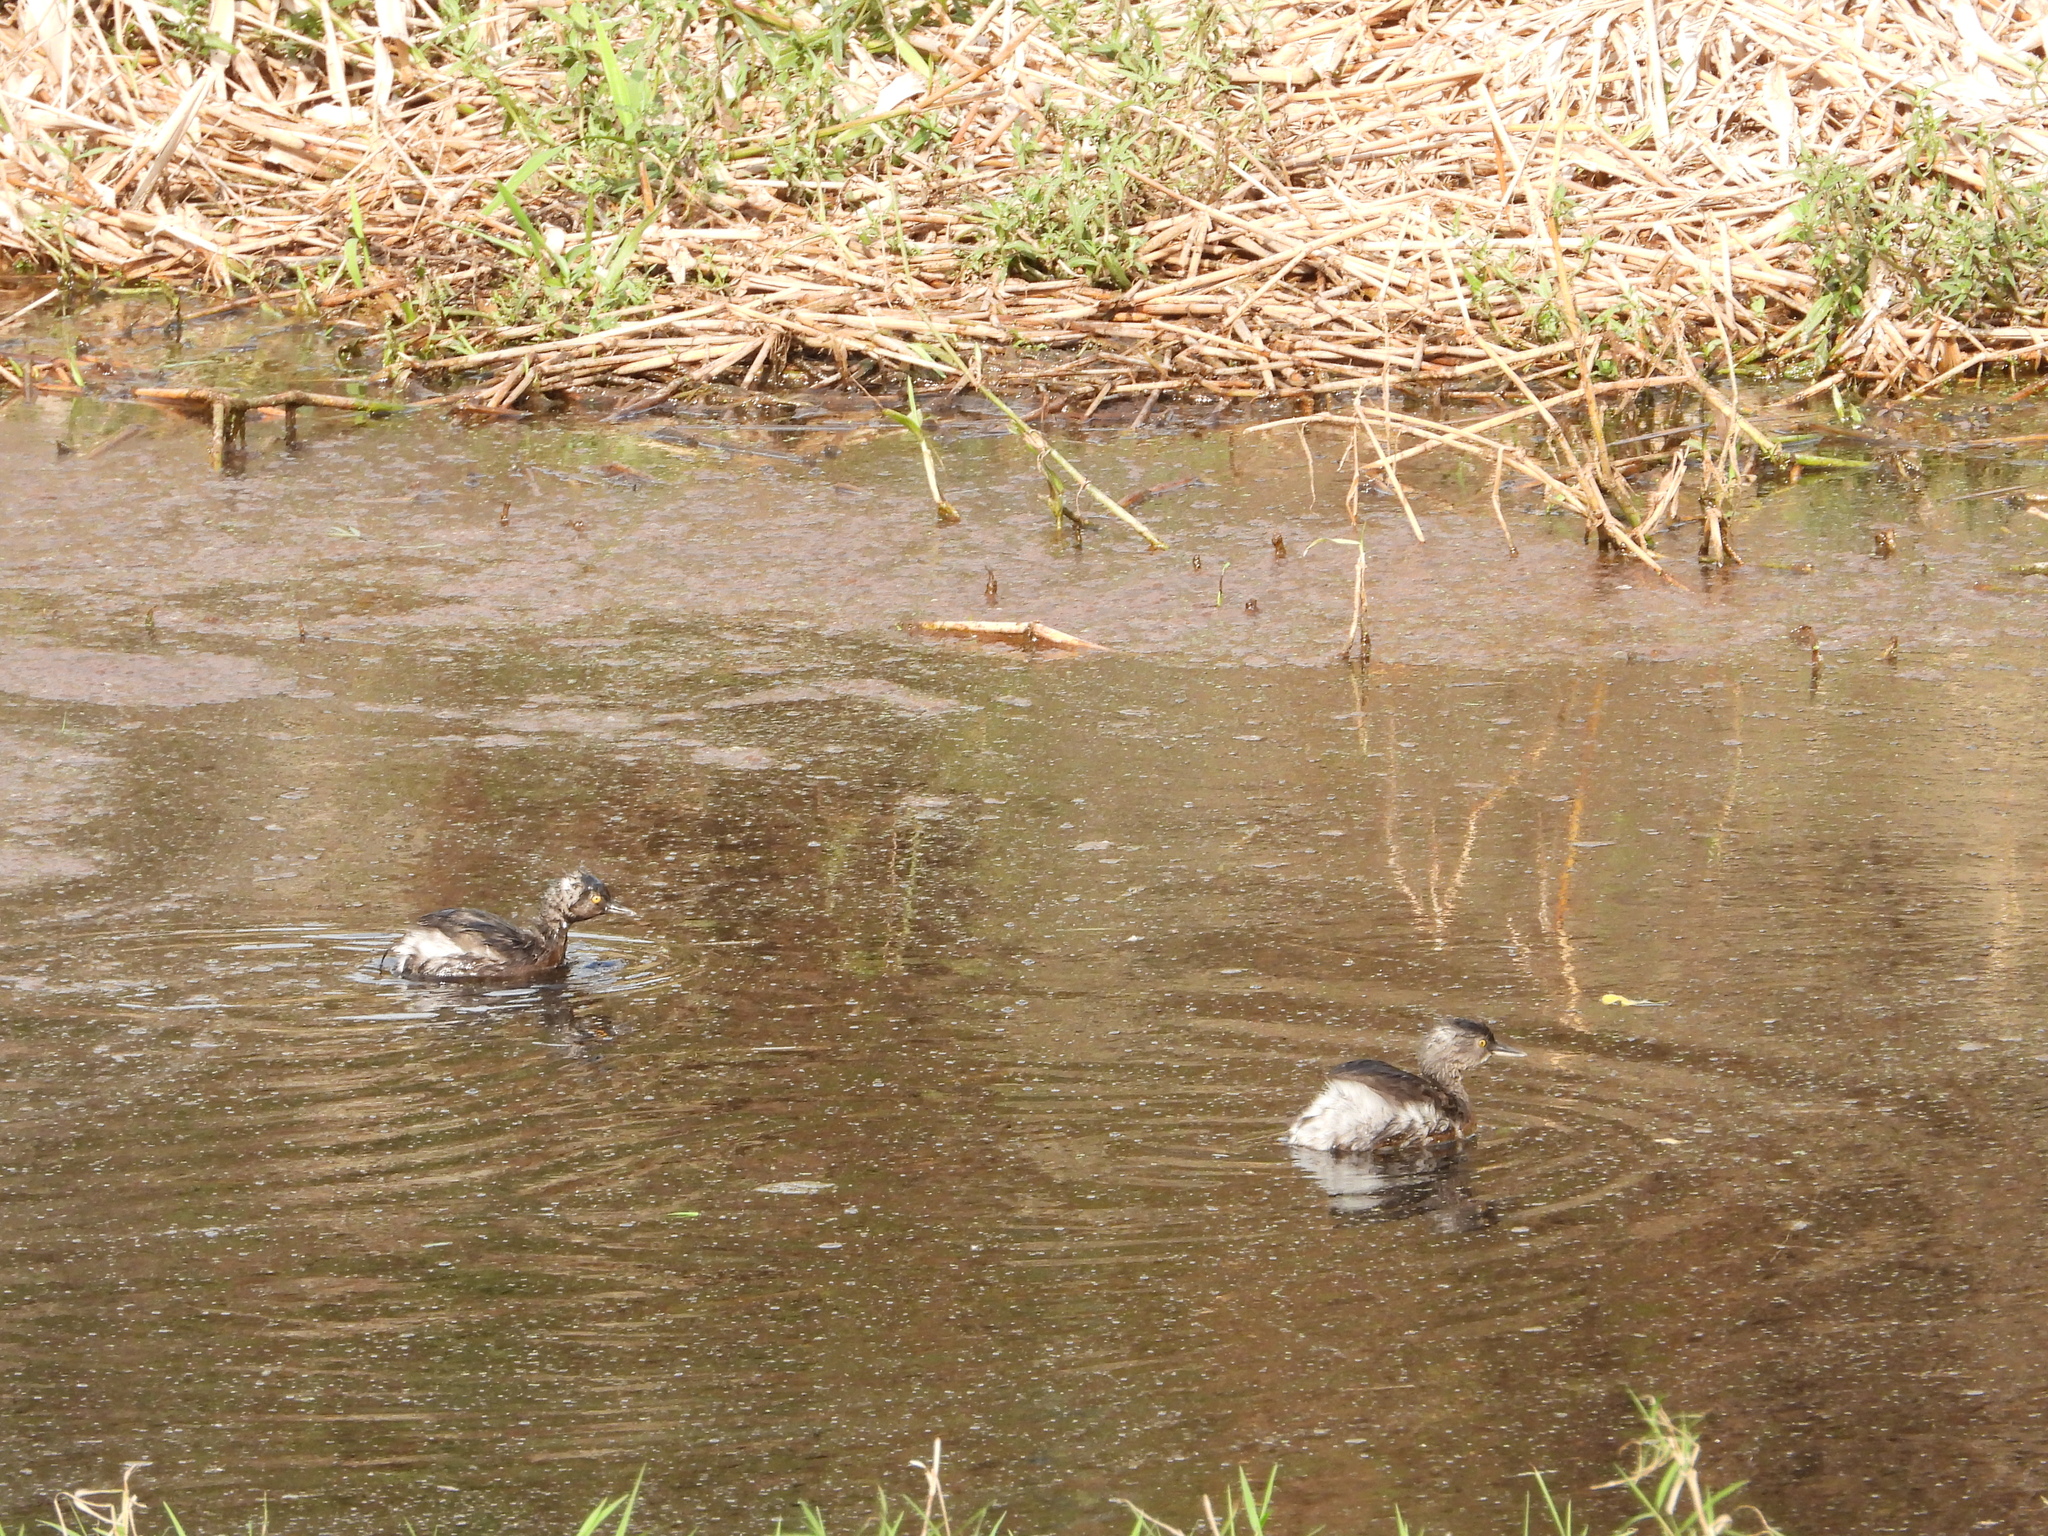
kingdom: Animalia
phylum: Chordata
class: Aves
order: Podicipediformes
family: Podicipedidae
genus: Tachybaptus
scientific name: Tachybaptus dominicus
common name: Least grebe
